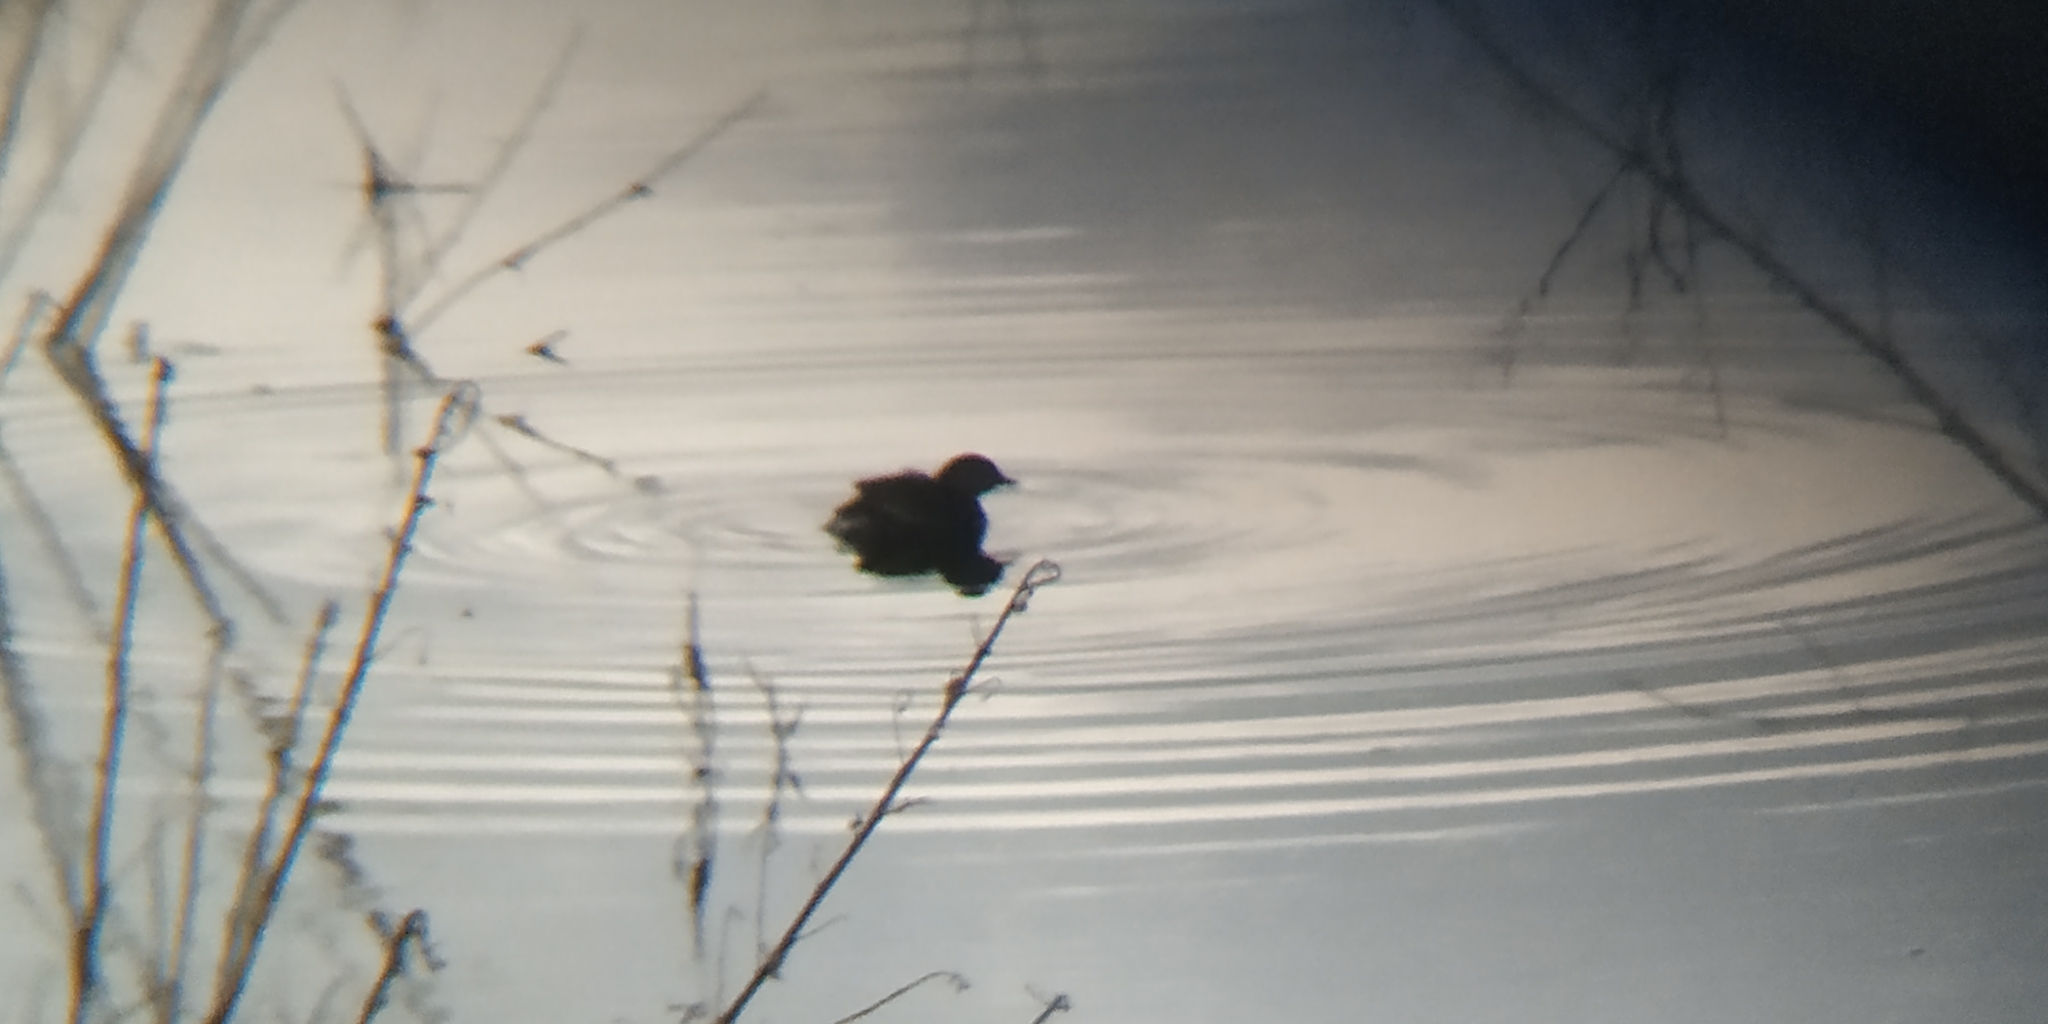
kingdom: Animalia
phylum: Chordata
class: Aves
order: Podicipediformes
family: Podicipedidae
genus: Tachybaptus
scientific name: Tachybaptus dominicus
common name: Least grebe
